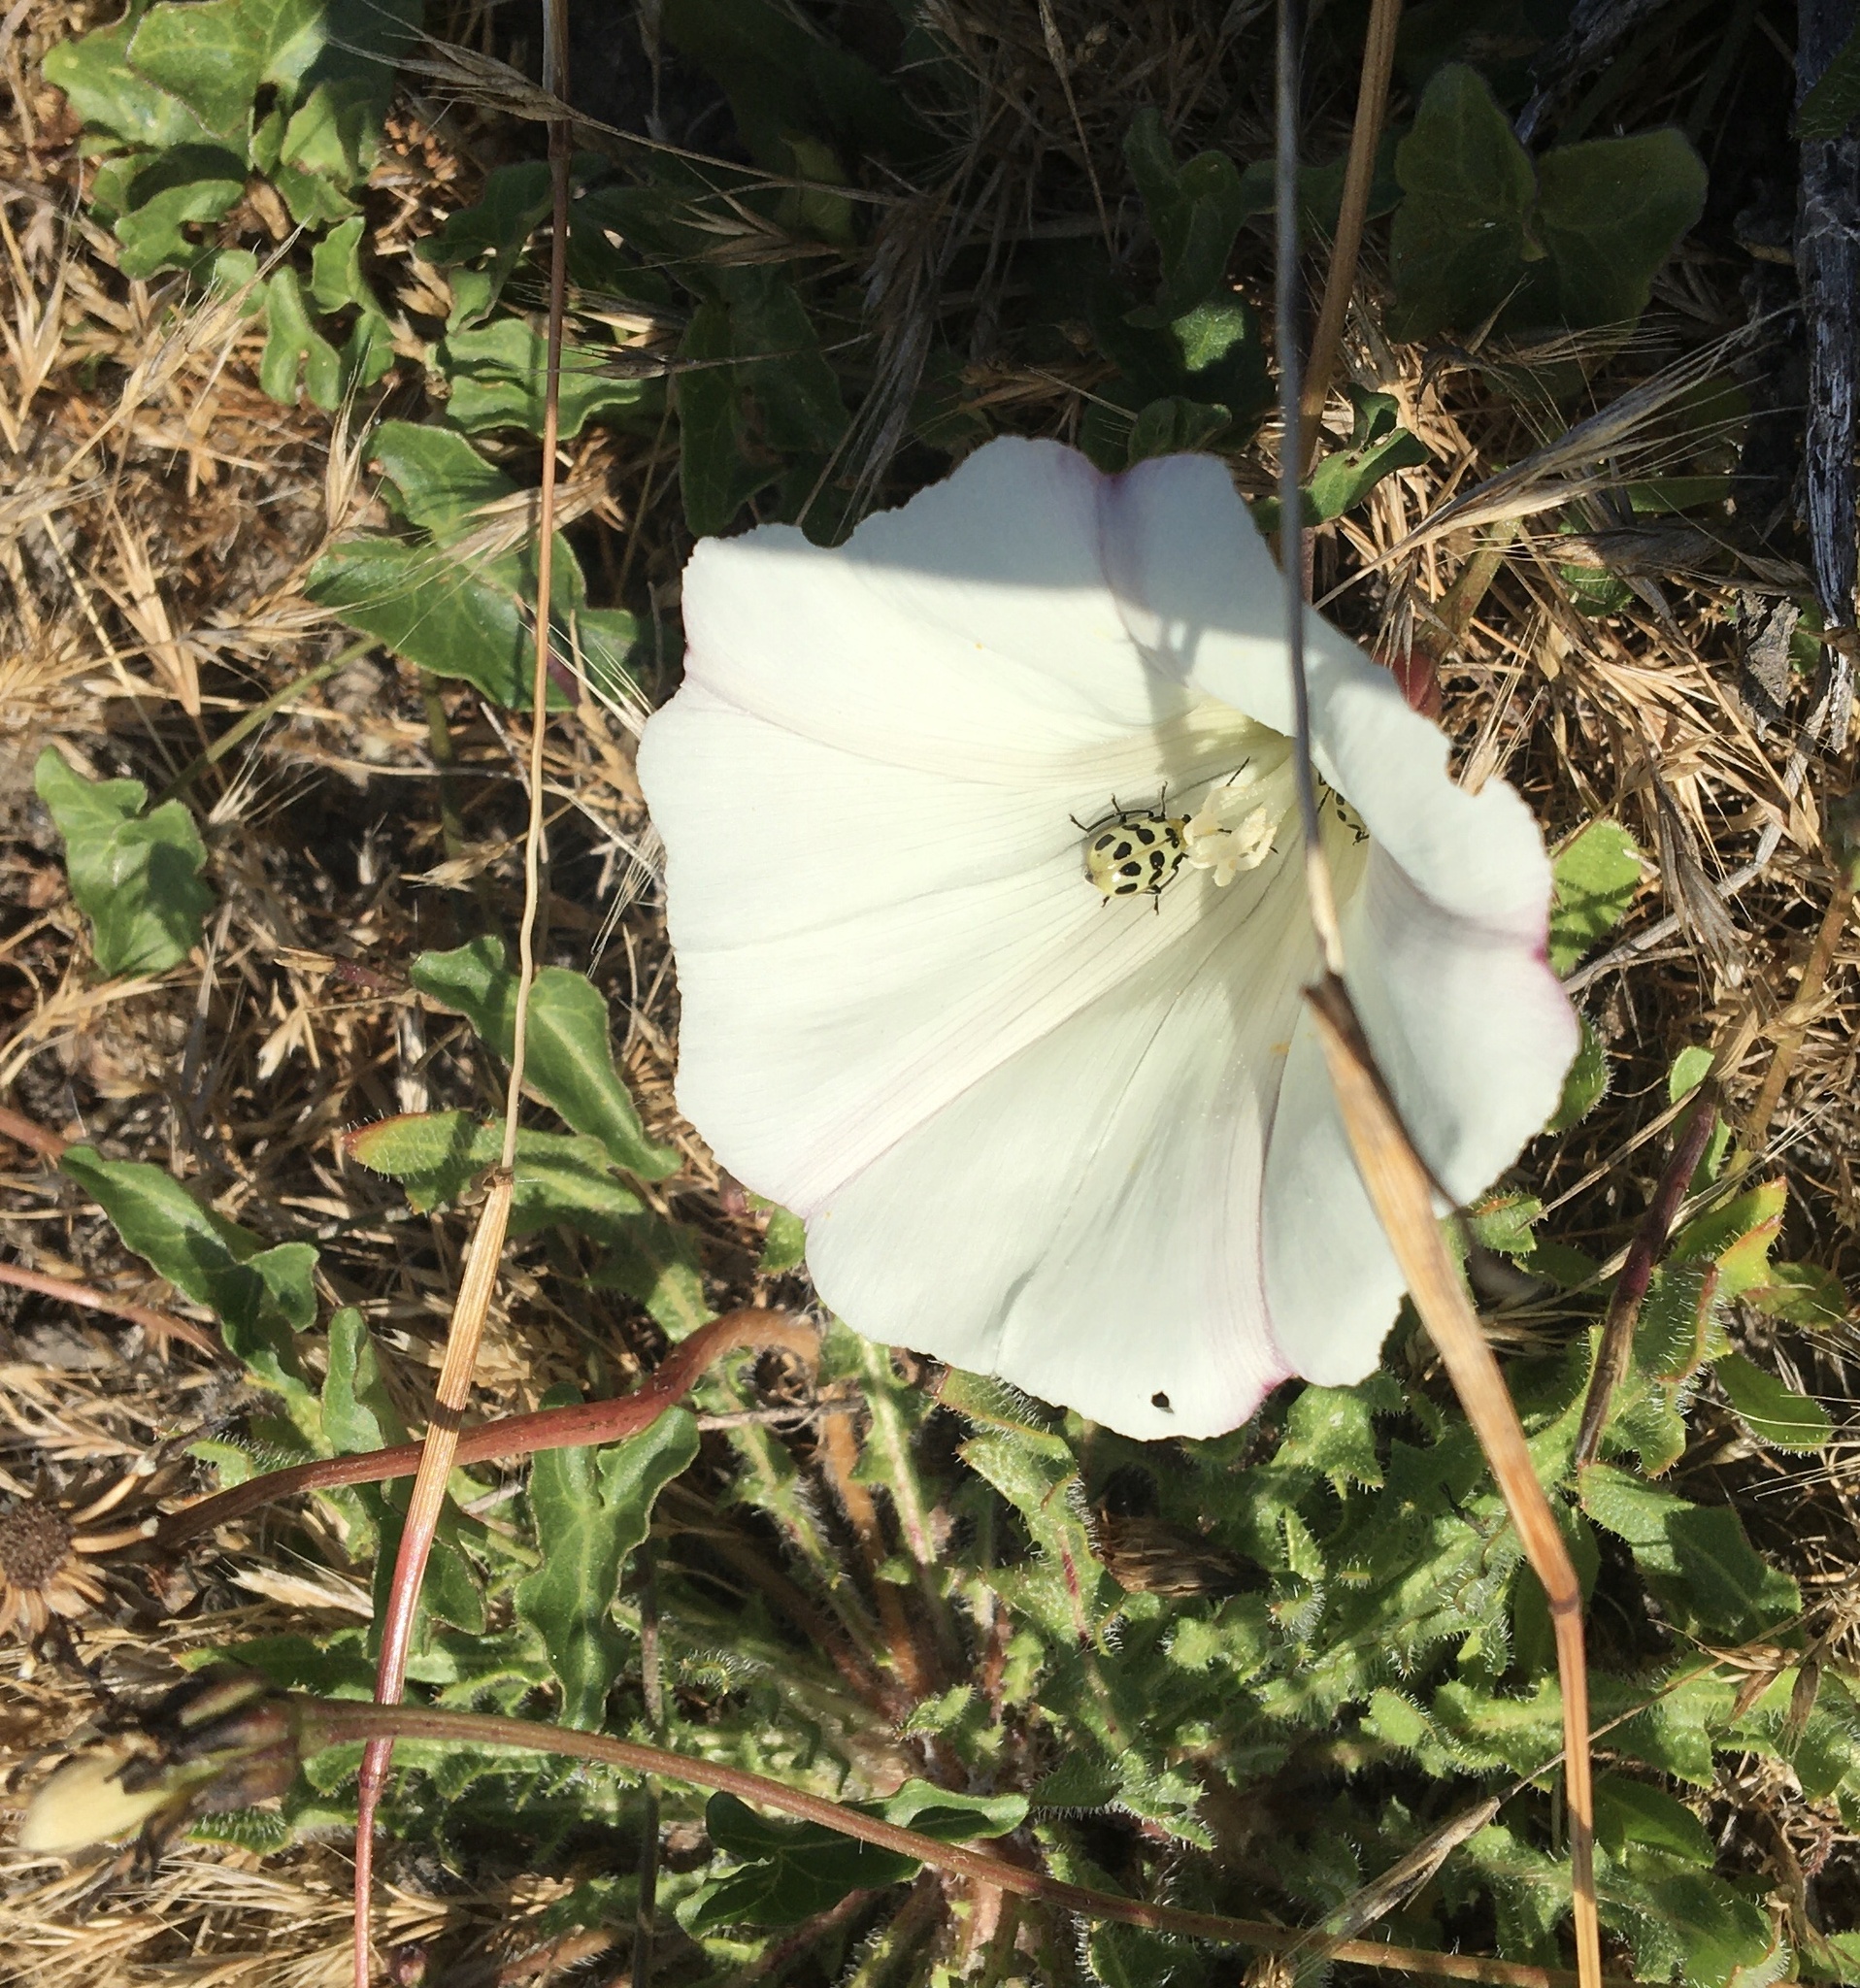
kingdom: Plantae
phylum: Tracheophyta
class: Magnoliopsida
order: Solanales
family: Convolvulaceae
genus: Calystegia
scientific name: Calystegia purpurata
